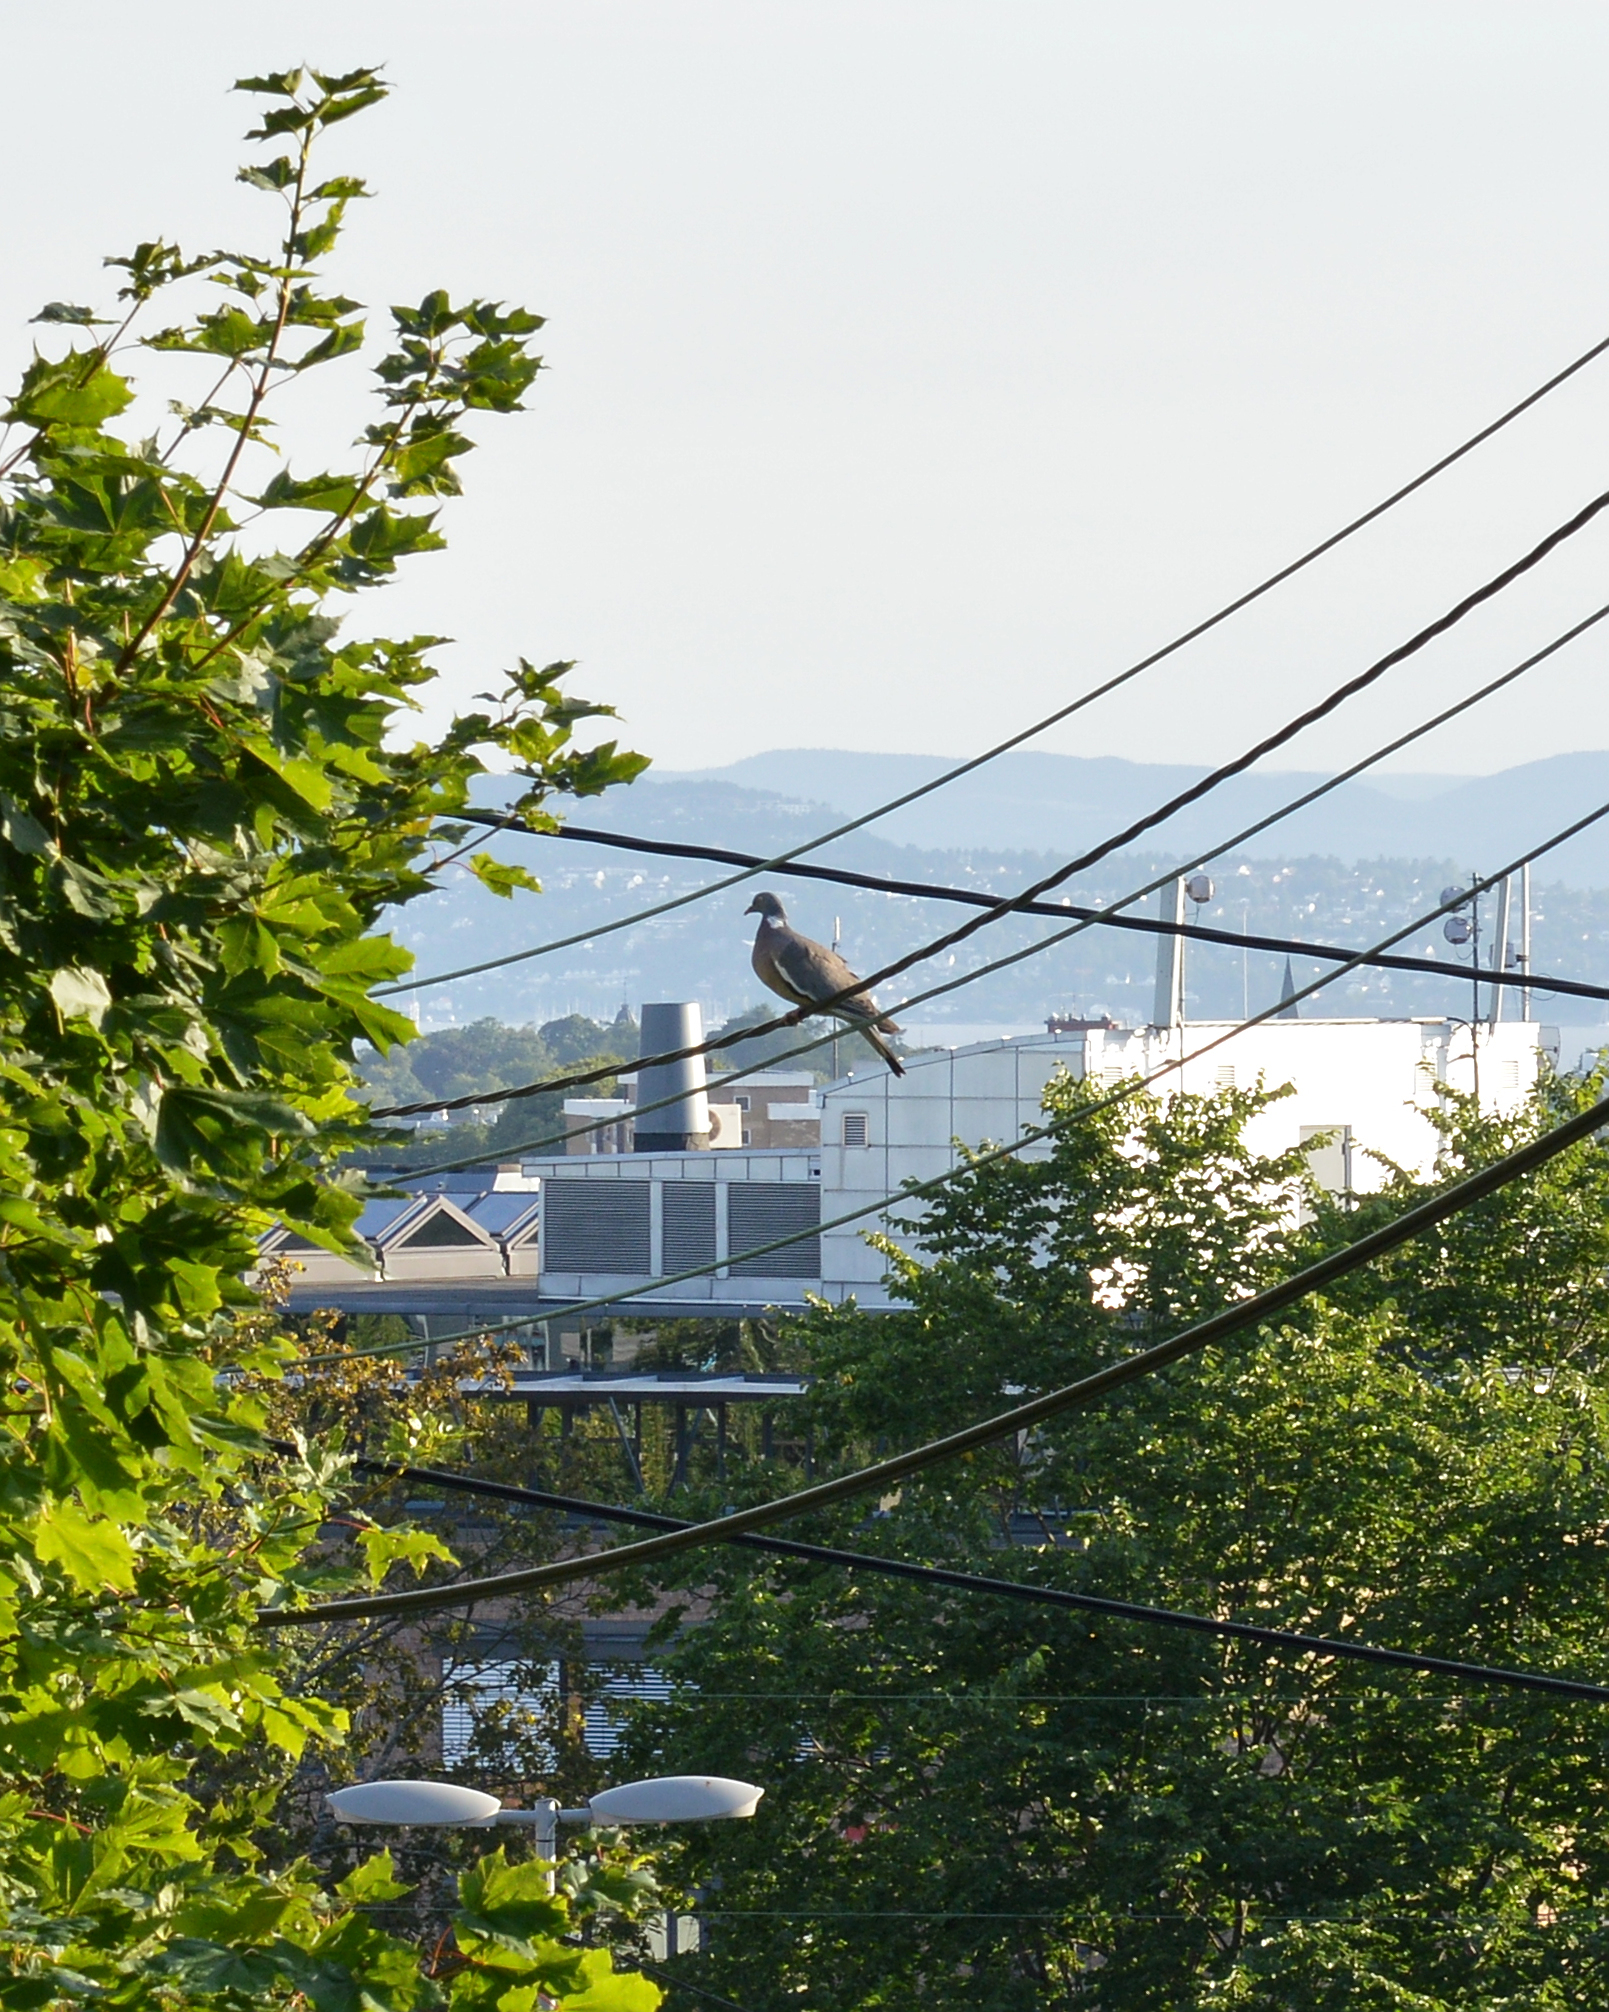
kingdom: Animalia
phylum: Chordata
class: Aves
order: Columbiformes
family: Columbidae
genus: Columba
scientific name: Columba palumbus
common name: Common wood pigeon
